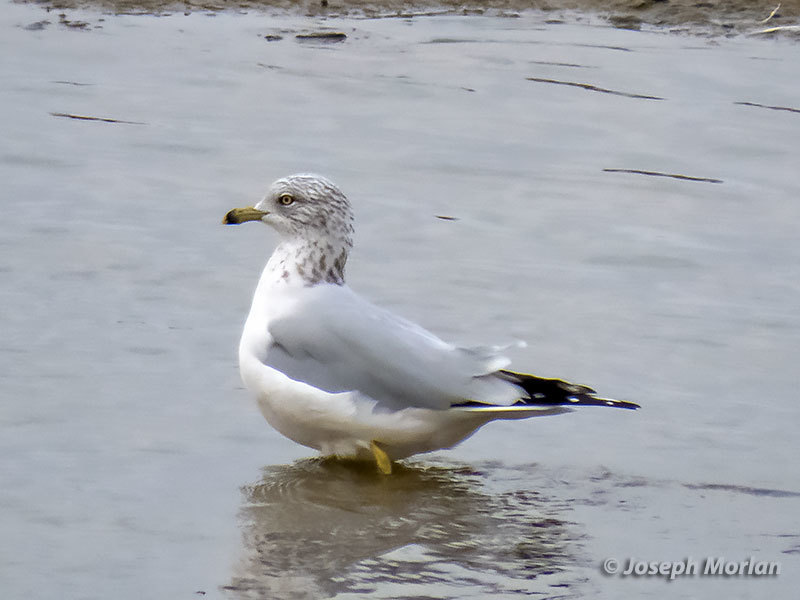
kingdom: Animalia
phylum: Chordata
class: Aves
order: Charadriiformes
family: Laridae
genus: Larus
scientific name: Larus delawarensis
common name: Ring-billed gull
